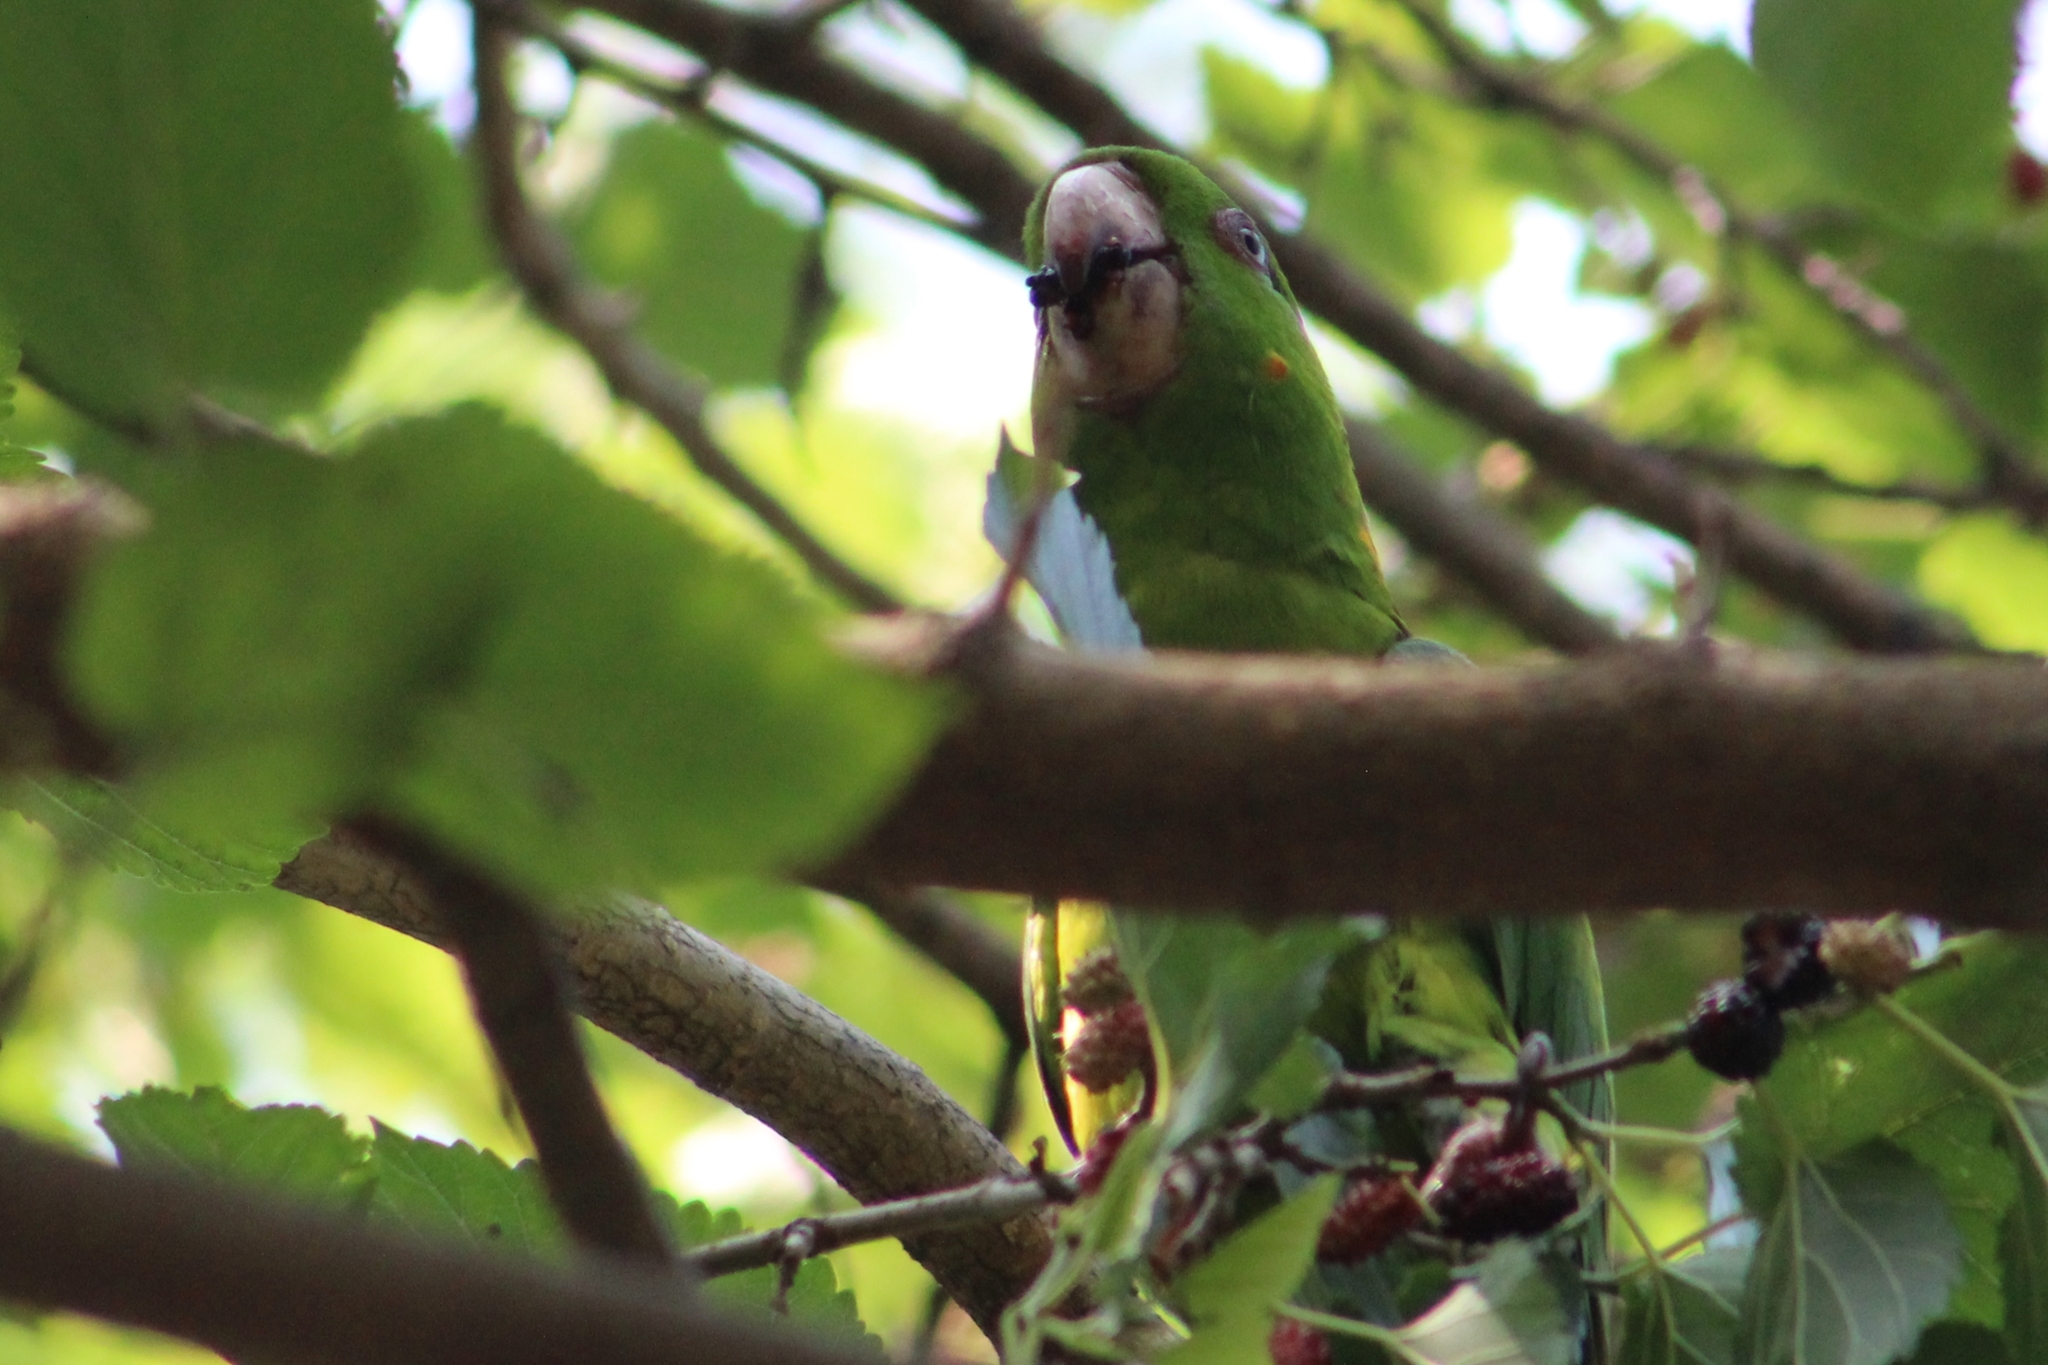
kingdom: Animalia
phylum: Chordata
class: Aves
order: Psittaciformes
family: Psittacidae
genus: Aratinga
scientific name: Aratinga holochlora
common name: Green parakeet
